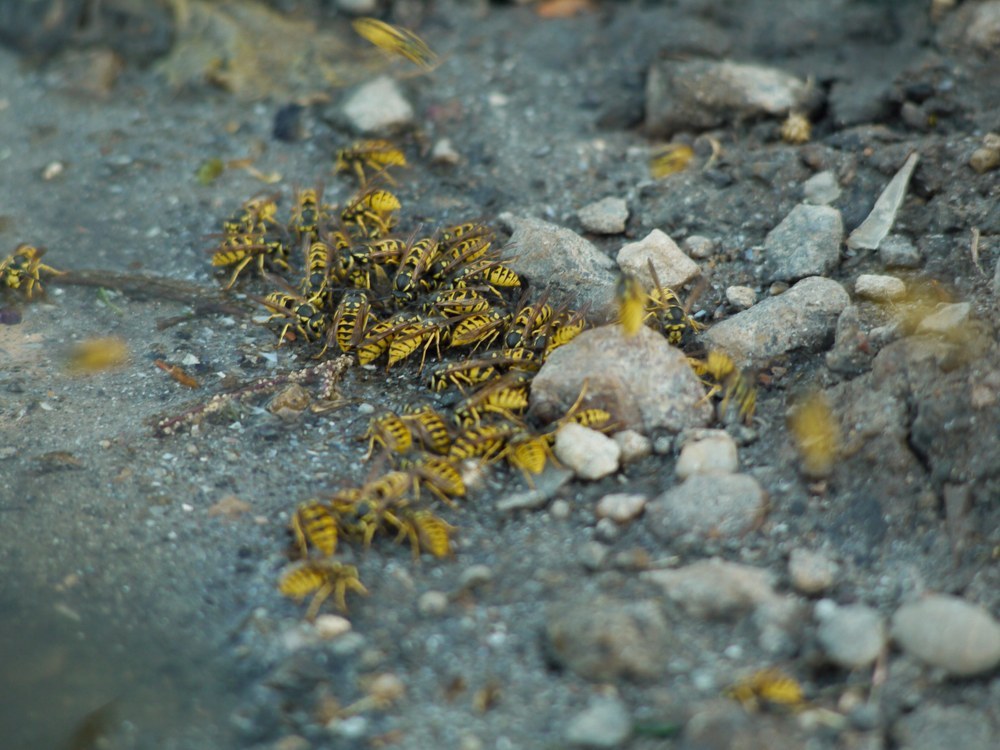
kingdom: Animalia
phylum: Arthropoda
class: Insecta
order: Hymenoptera
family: Vespidae
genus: Vespula
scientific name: Vespula germanica
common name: German wasp
